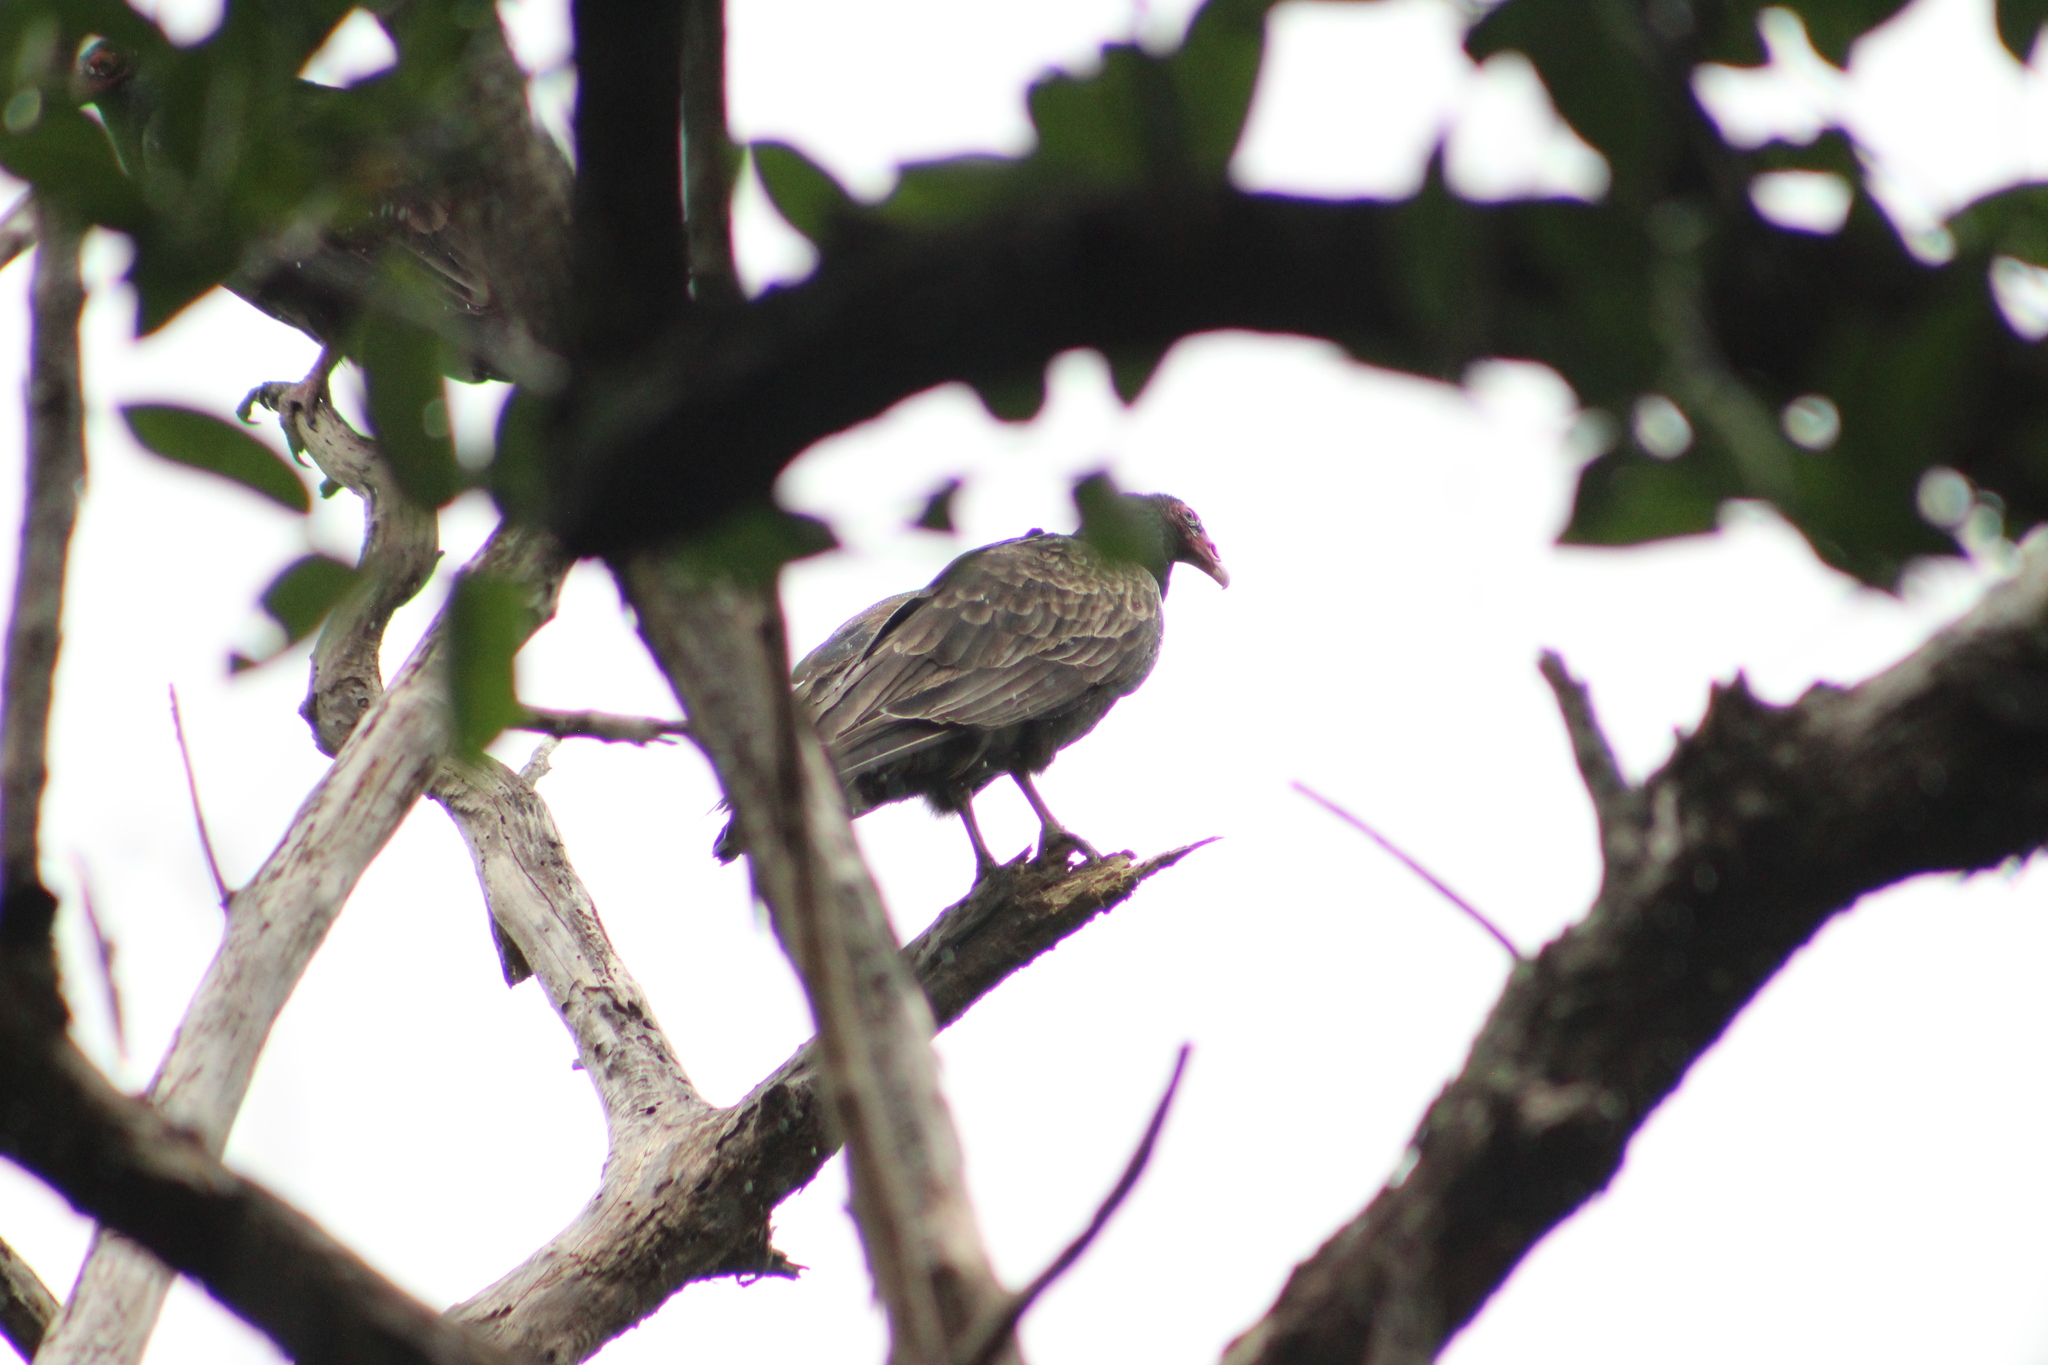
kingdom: Animalia
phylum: Chordata
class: Aves
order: Accipitriformes
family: Cathartidae
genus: Cathartes
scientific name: Cathartes aura
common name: Turkey vulture
